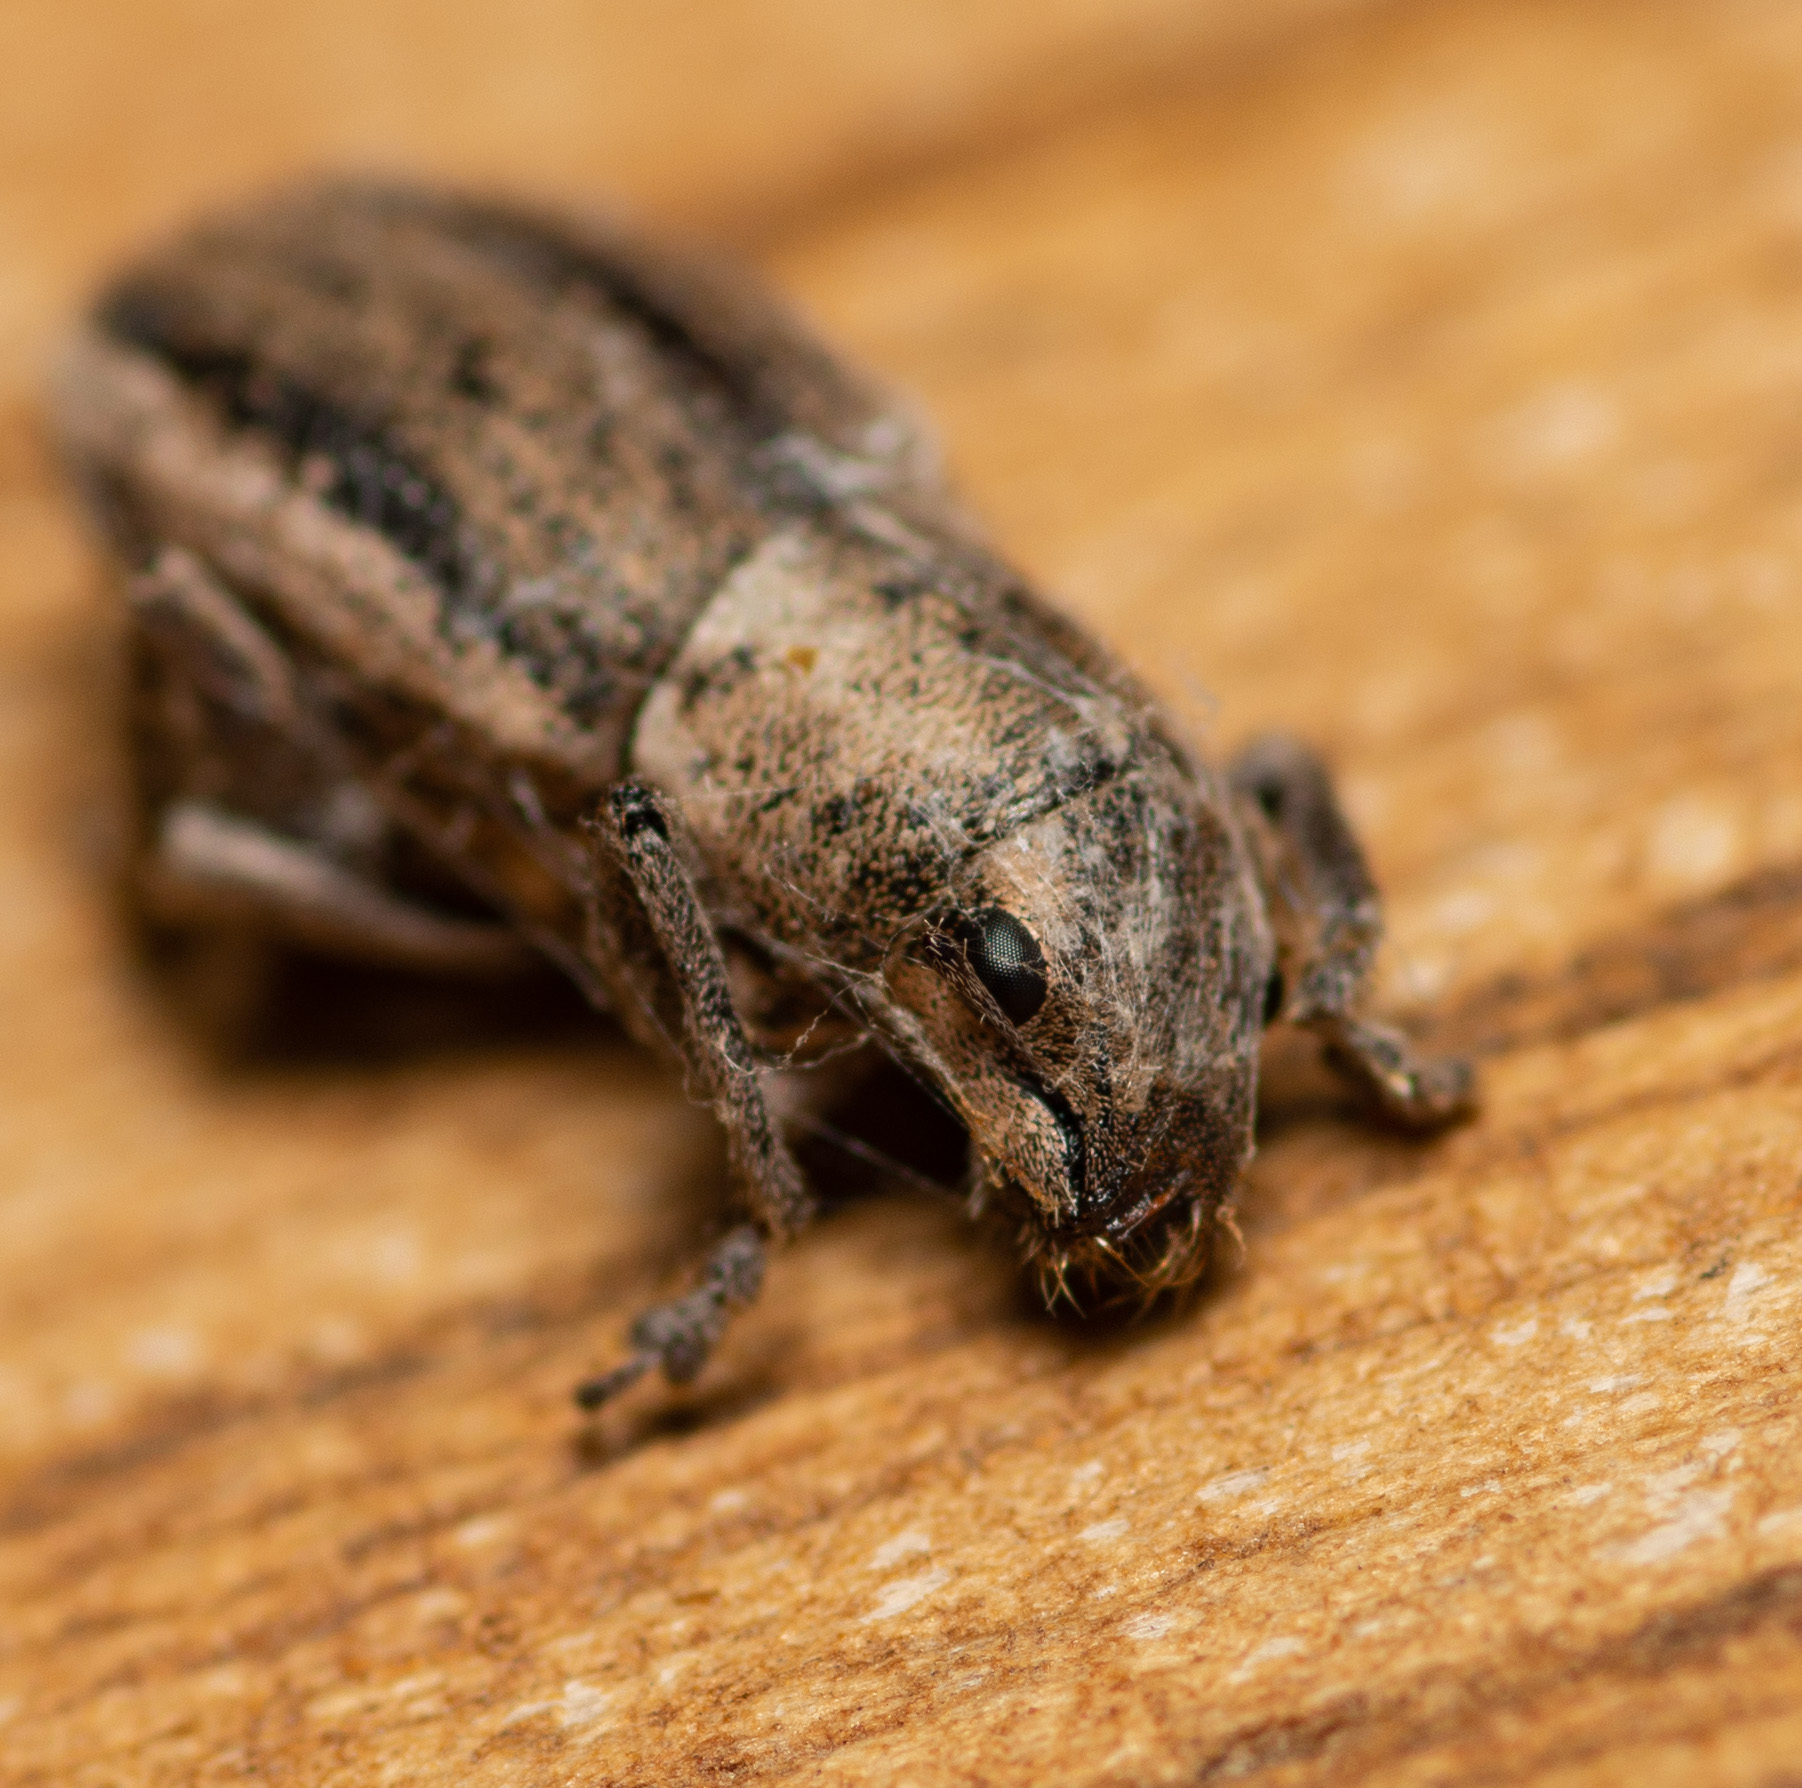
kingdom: Animalia
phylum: Arthropoda
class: Insecta
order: Coleoptera
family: Curculionidae
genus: Naupactus
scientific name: Naupactus peregrinus
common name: Whitefringed beetle
